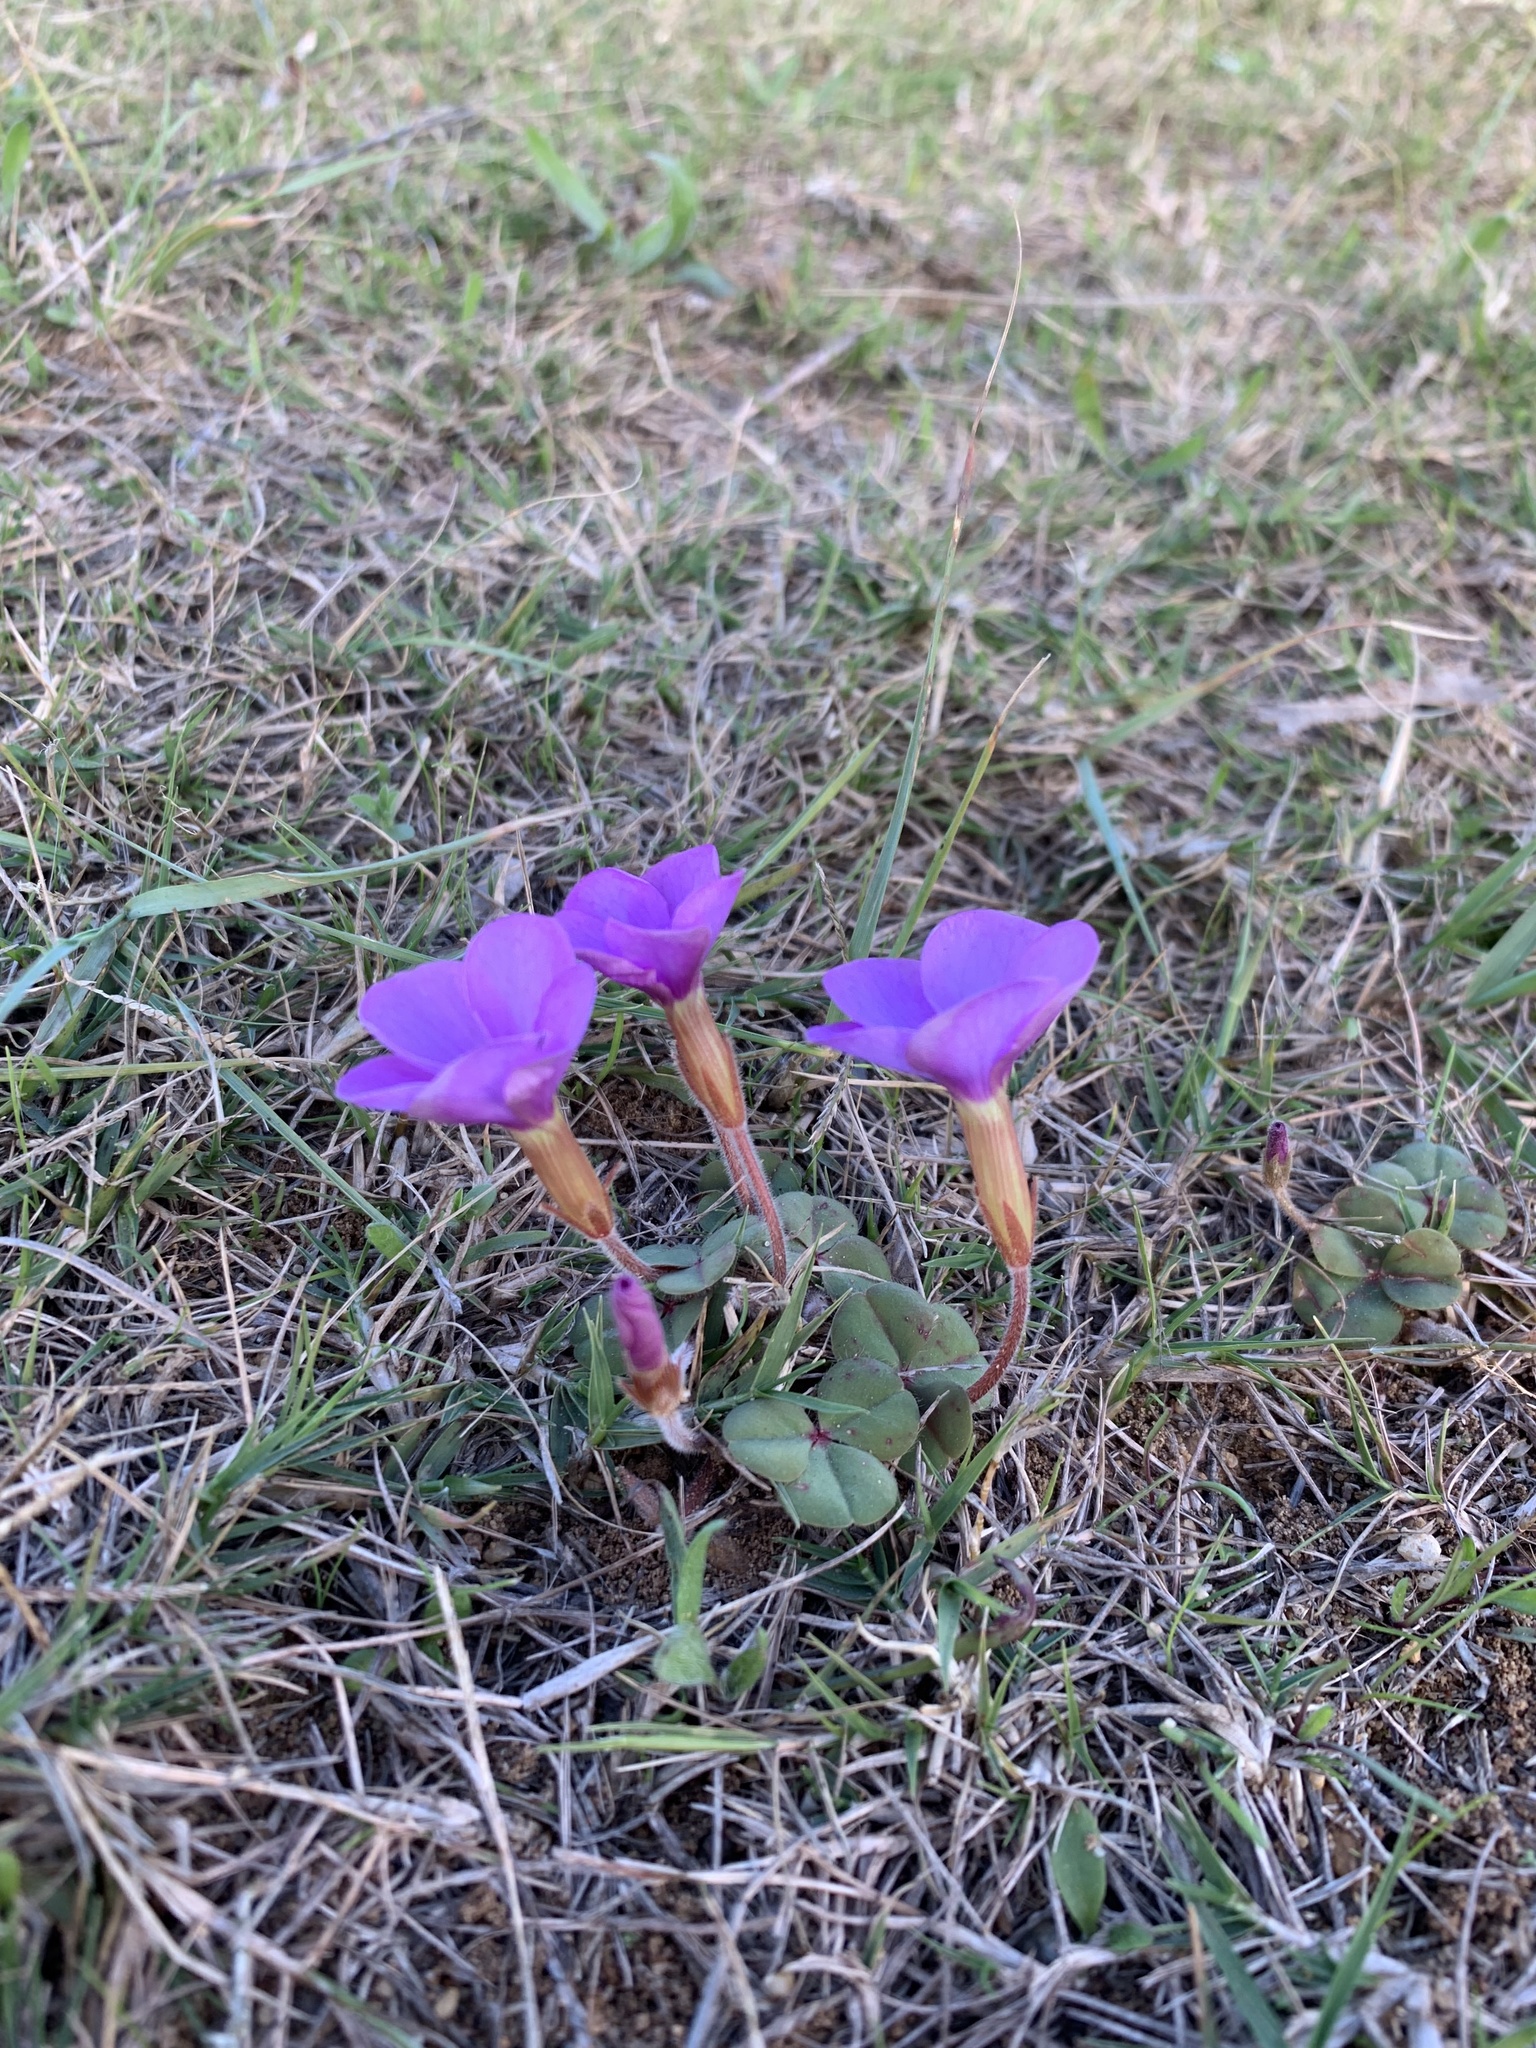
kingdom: Plantae
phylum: Tracheophyta
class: Magnoliopsida
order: Oxalidales
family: Oxalidaceae
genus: Oxalis
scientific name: Oxalis eckloniana
